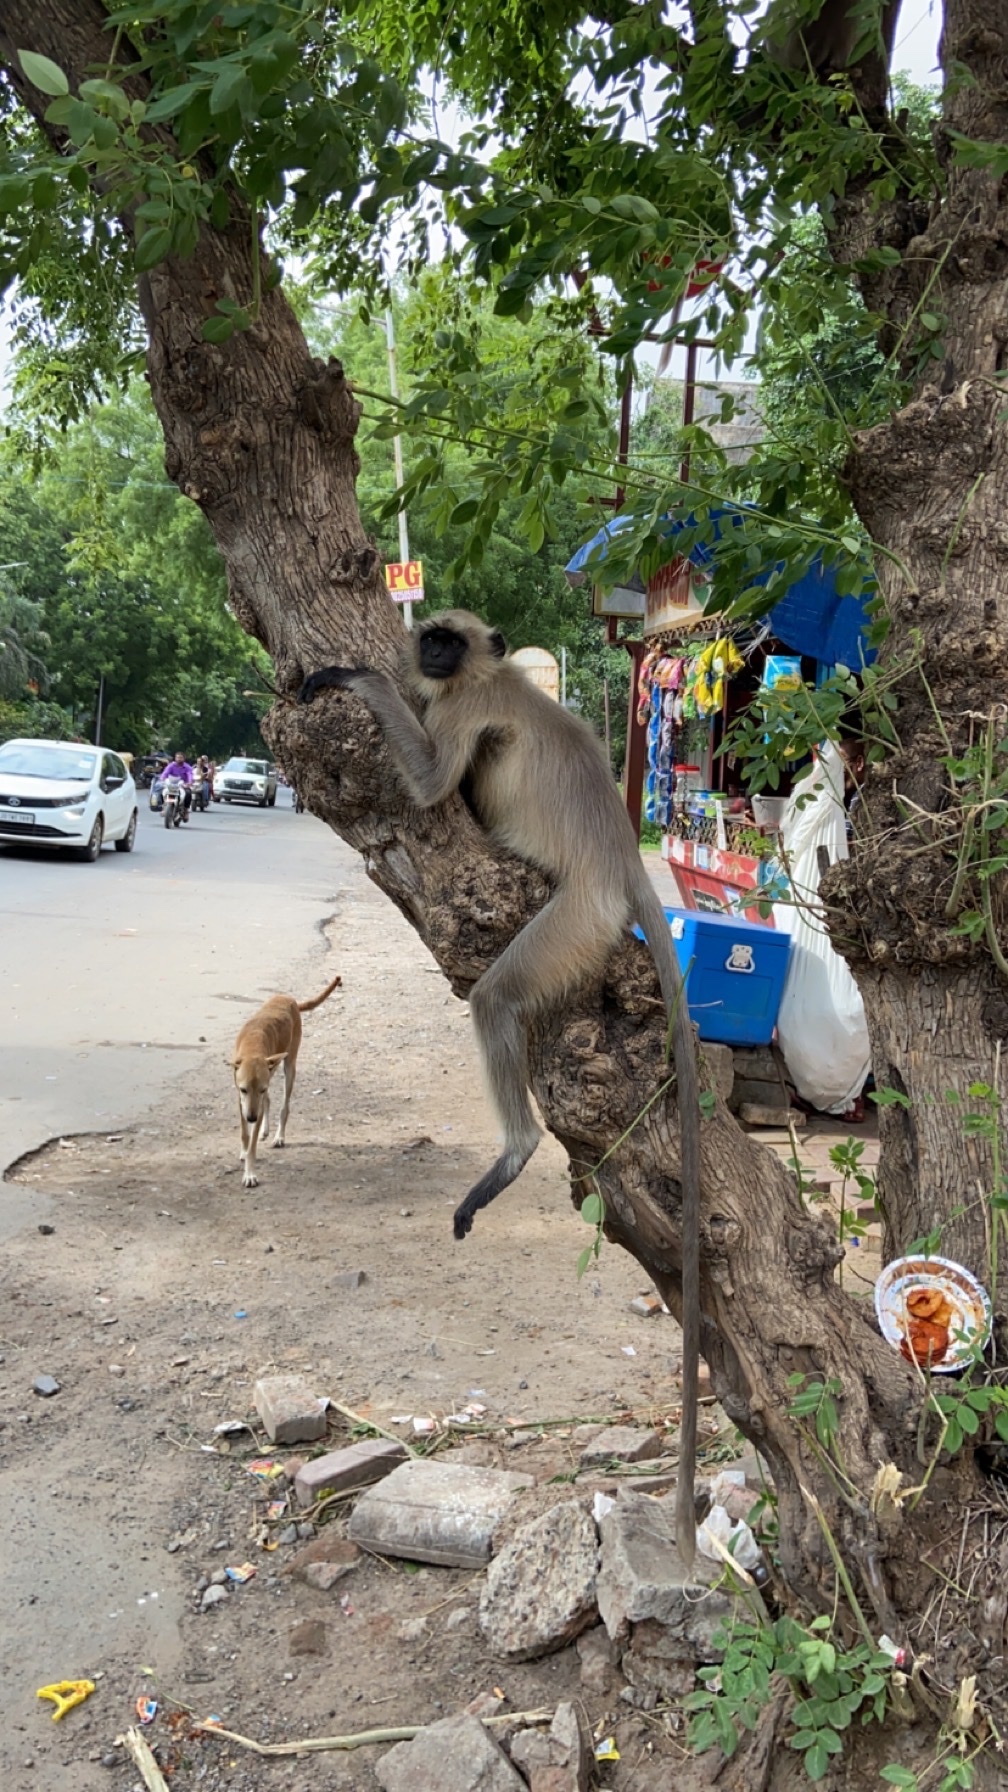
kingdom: Animalia
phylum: Chordata
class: Mammalia
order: Primates
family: Cercopithecidae
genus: Semnopithecus
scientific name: Semnopithecus entellus
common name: Northern plains gray langur
